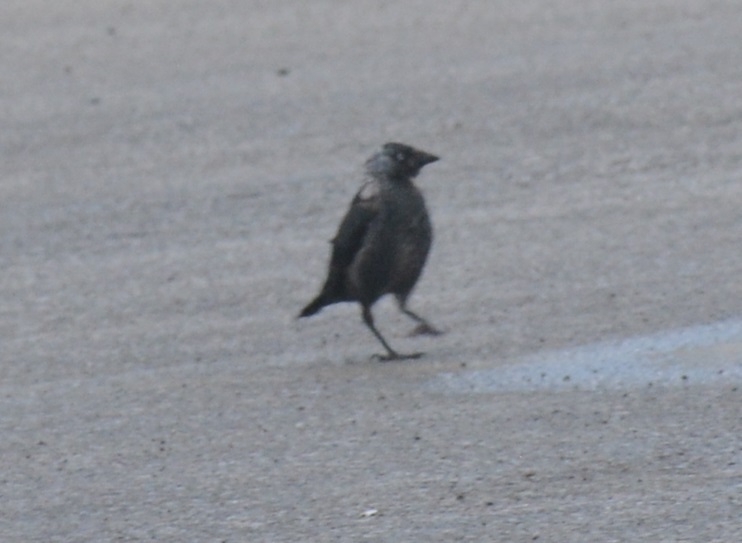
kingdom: Animalia
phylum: Chordata
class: Aves
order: Passeriformes
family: Corvidae
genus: Coloeus
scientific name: Coloeus monedula
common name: Western jackdaw
